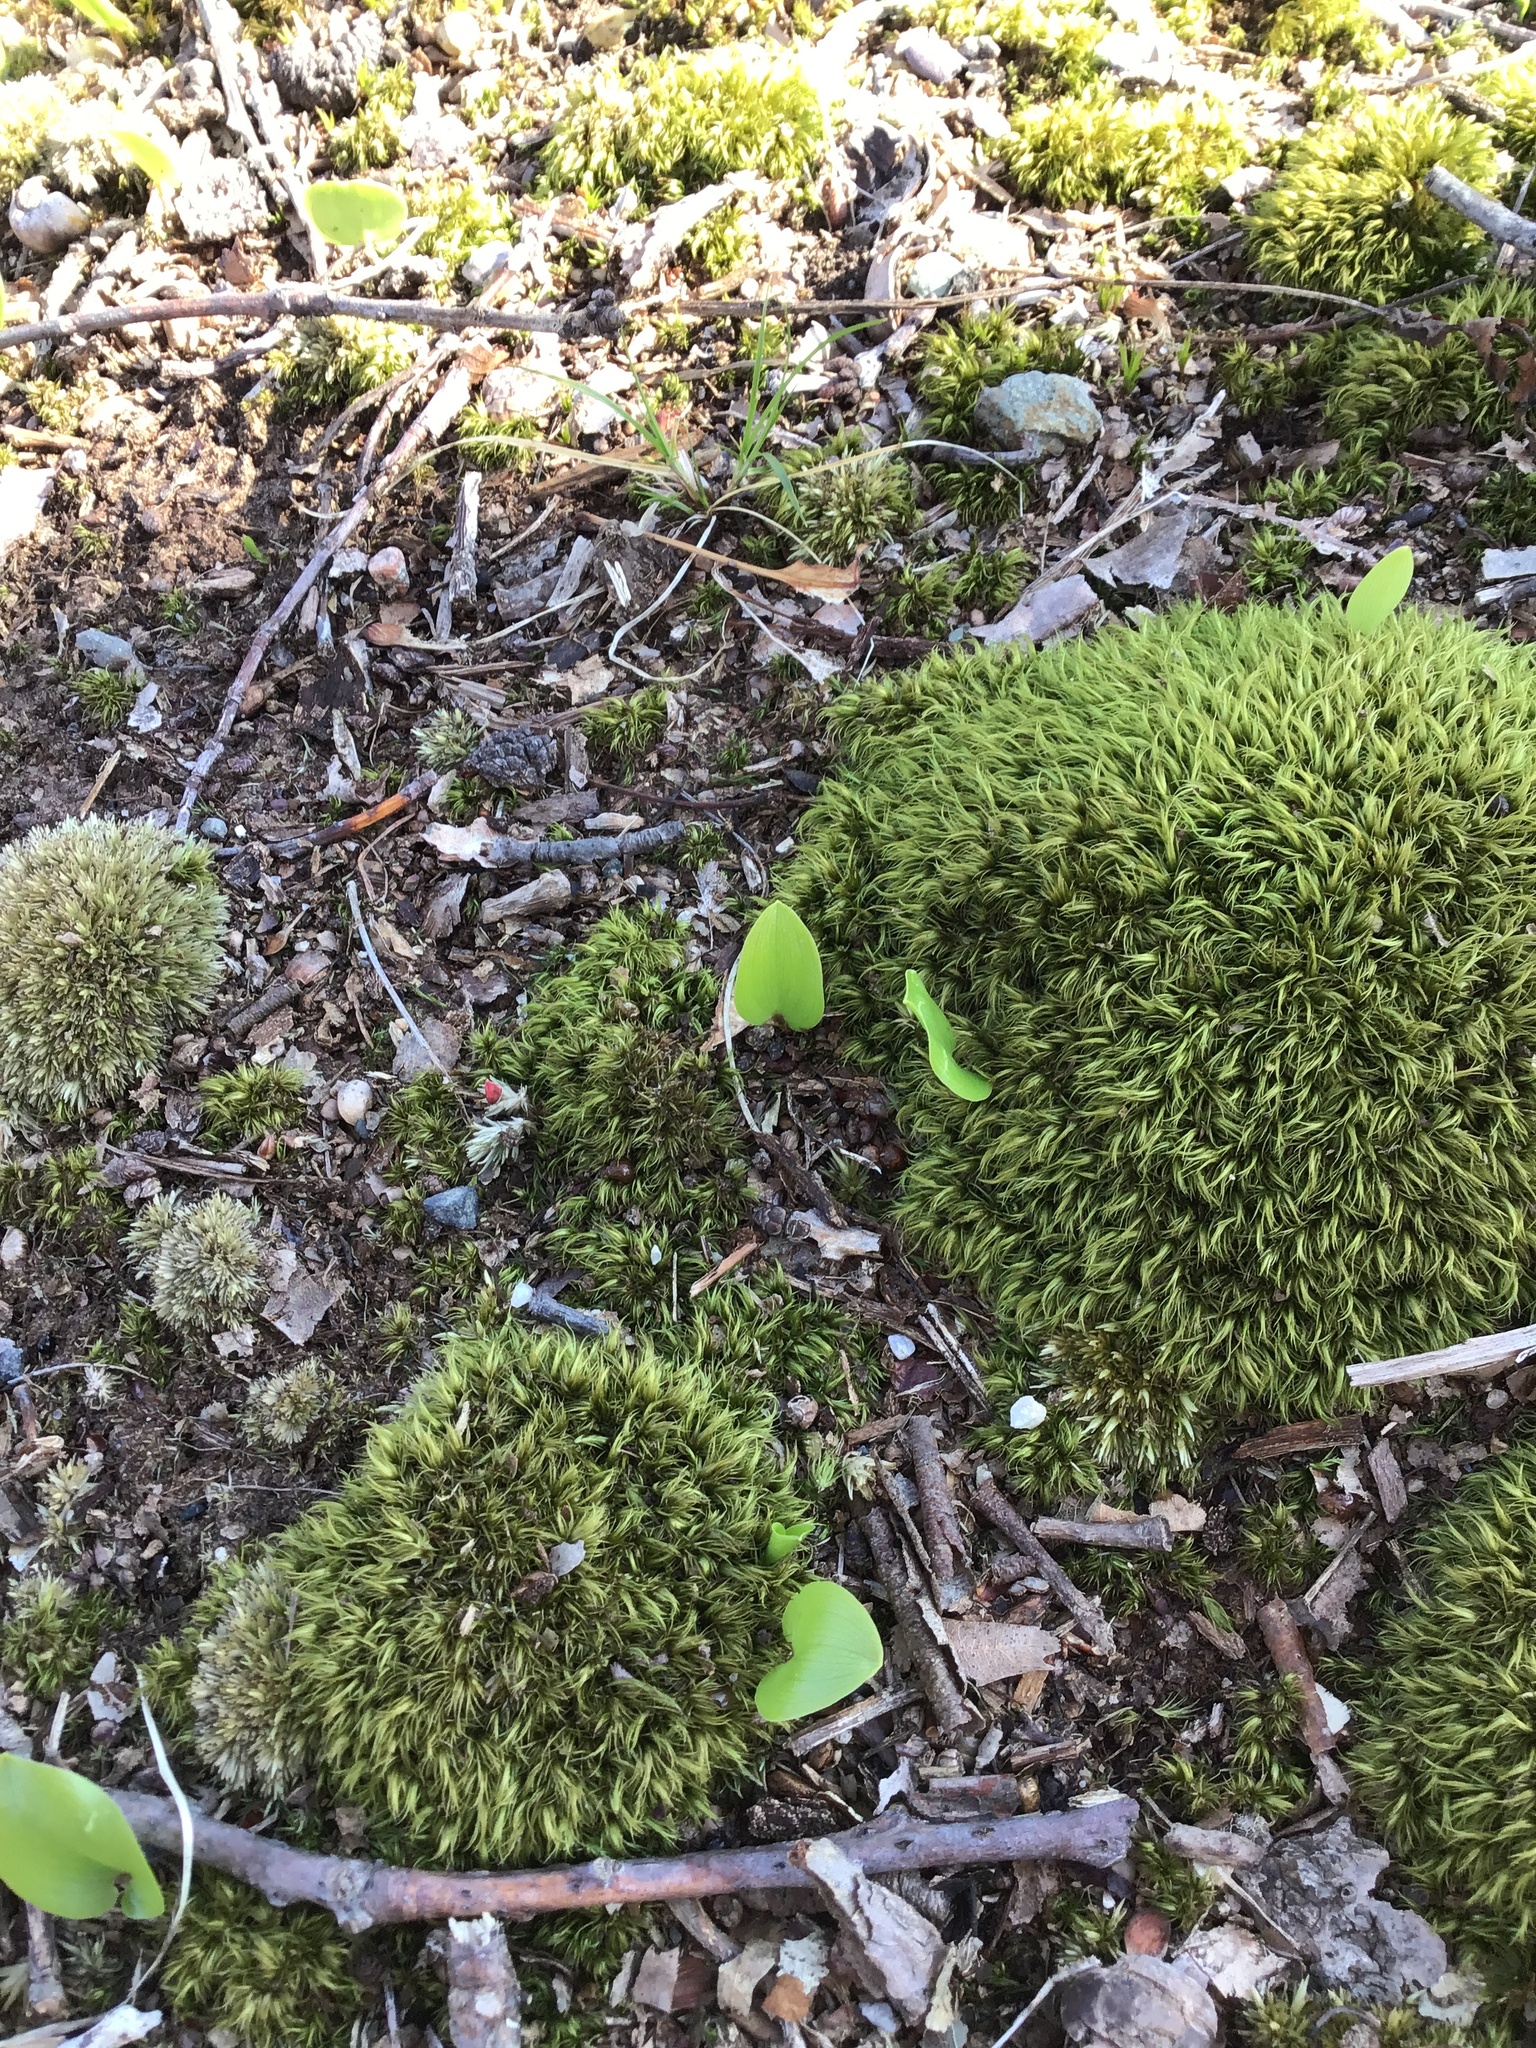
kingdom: Plantae
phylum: Tracheophyta
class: Liliopsida
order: Asparagales
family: Asparagaceae
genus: Maianthemum
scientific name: Maianthemum canadense
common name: False lily-of-the-valley
